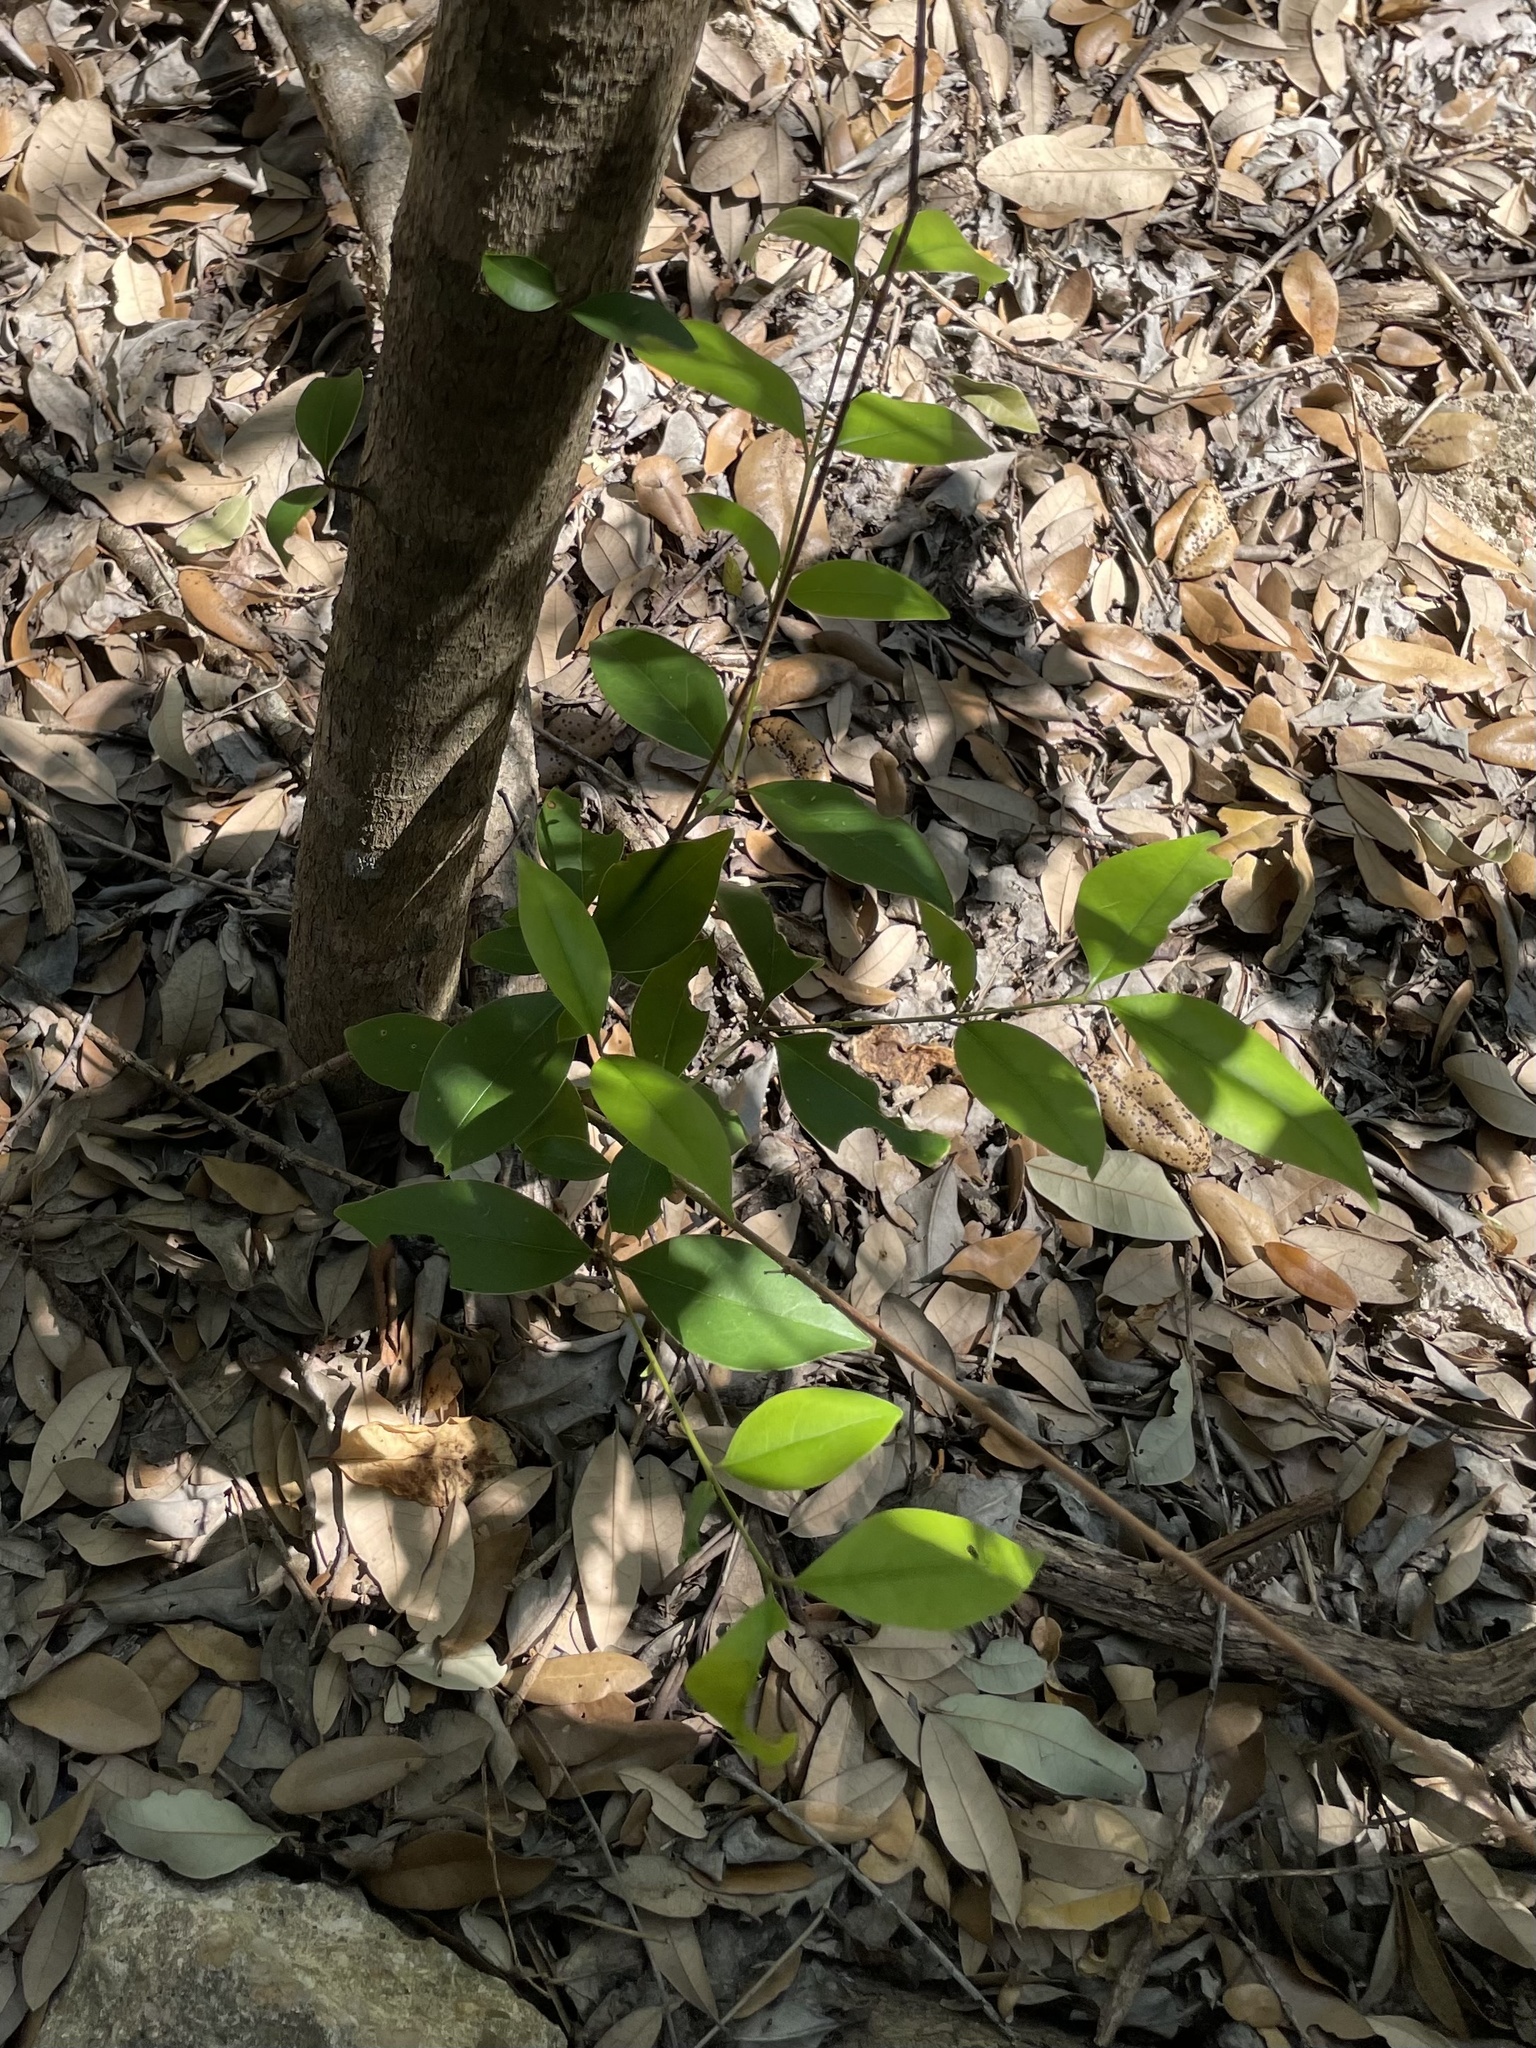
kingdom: Plantae
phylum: Tracheophyta
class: Magnoliopsida
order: Lamiales
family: Oleaceae
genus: Ligustrum
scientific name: Ligustrum lucidum
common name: Glossy privet
